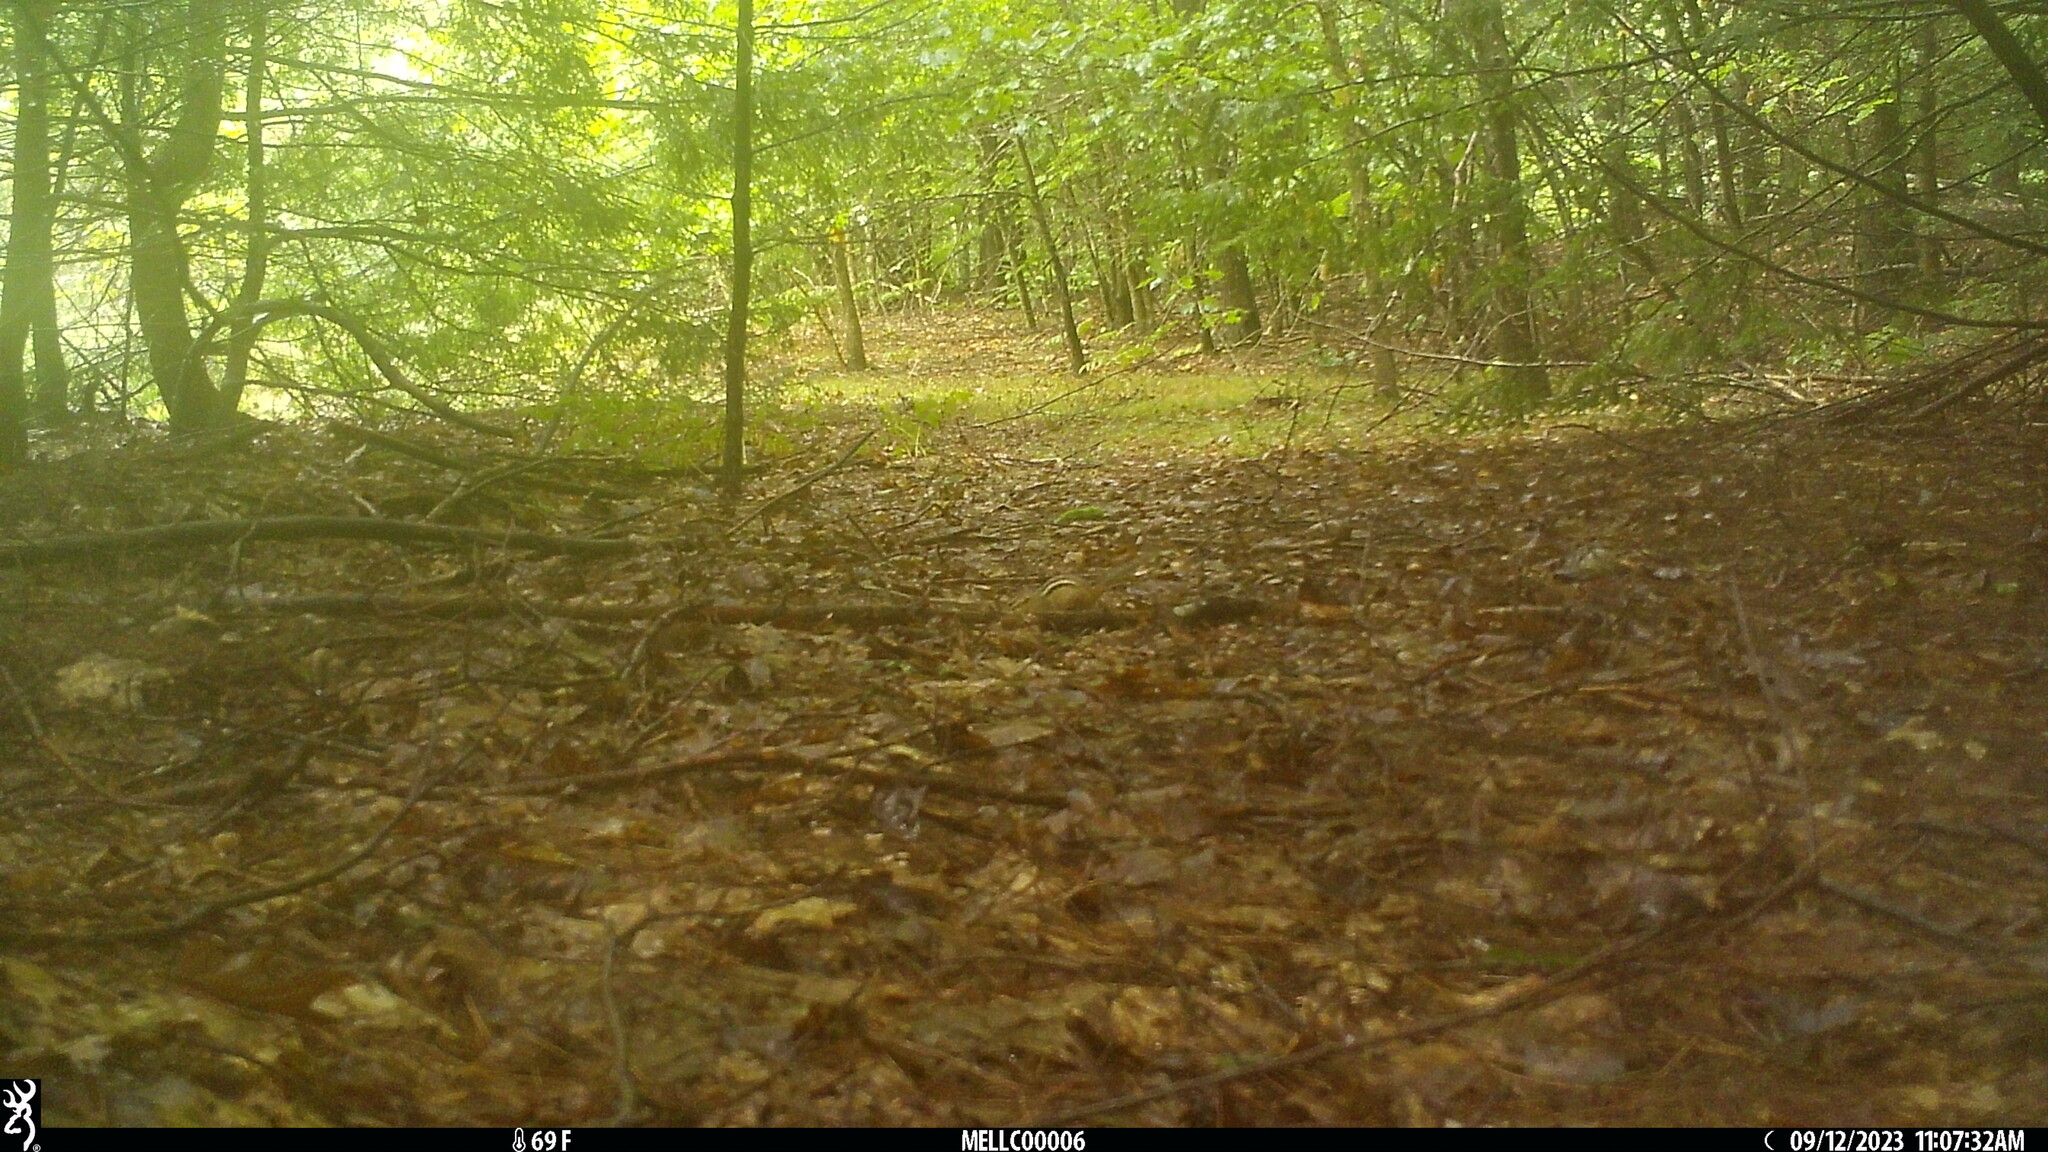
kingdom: Animalia
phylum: Chordata
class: Mammalia
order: Rodentia
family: Sciuridae
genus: Tamias
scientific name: Tamias striatus
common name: Eastern chipmunk
